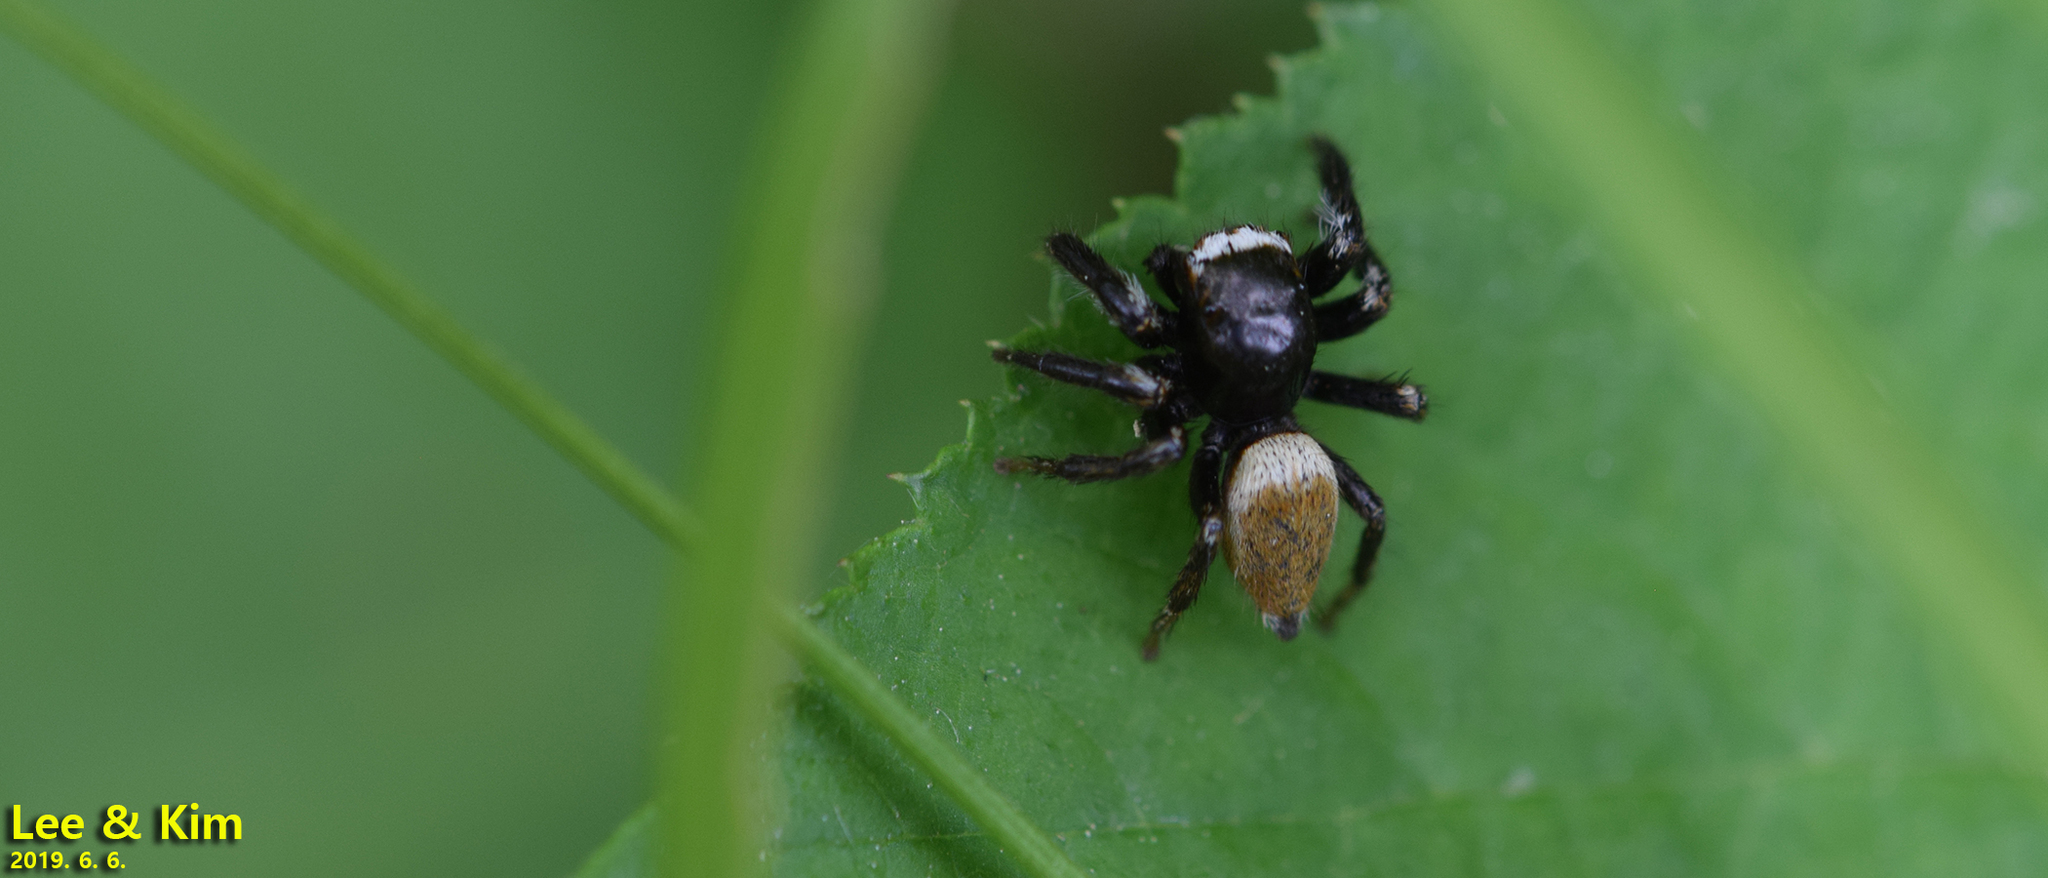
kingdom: Animalia
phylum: Arthropoda
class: Arachnida
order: Araneae
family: Salticidae
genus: Evarcha
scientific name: Evarcha albaria
